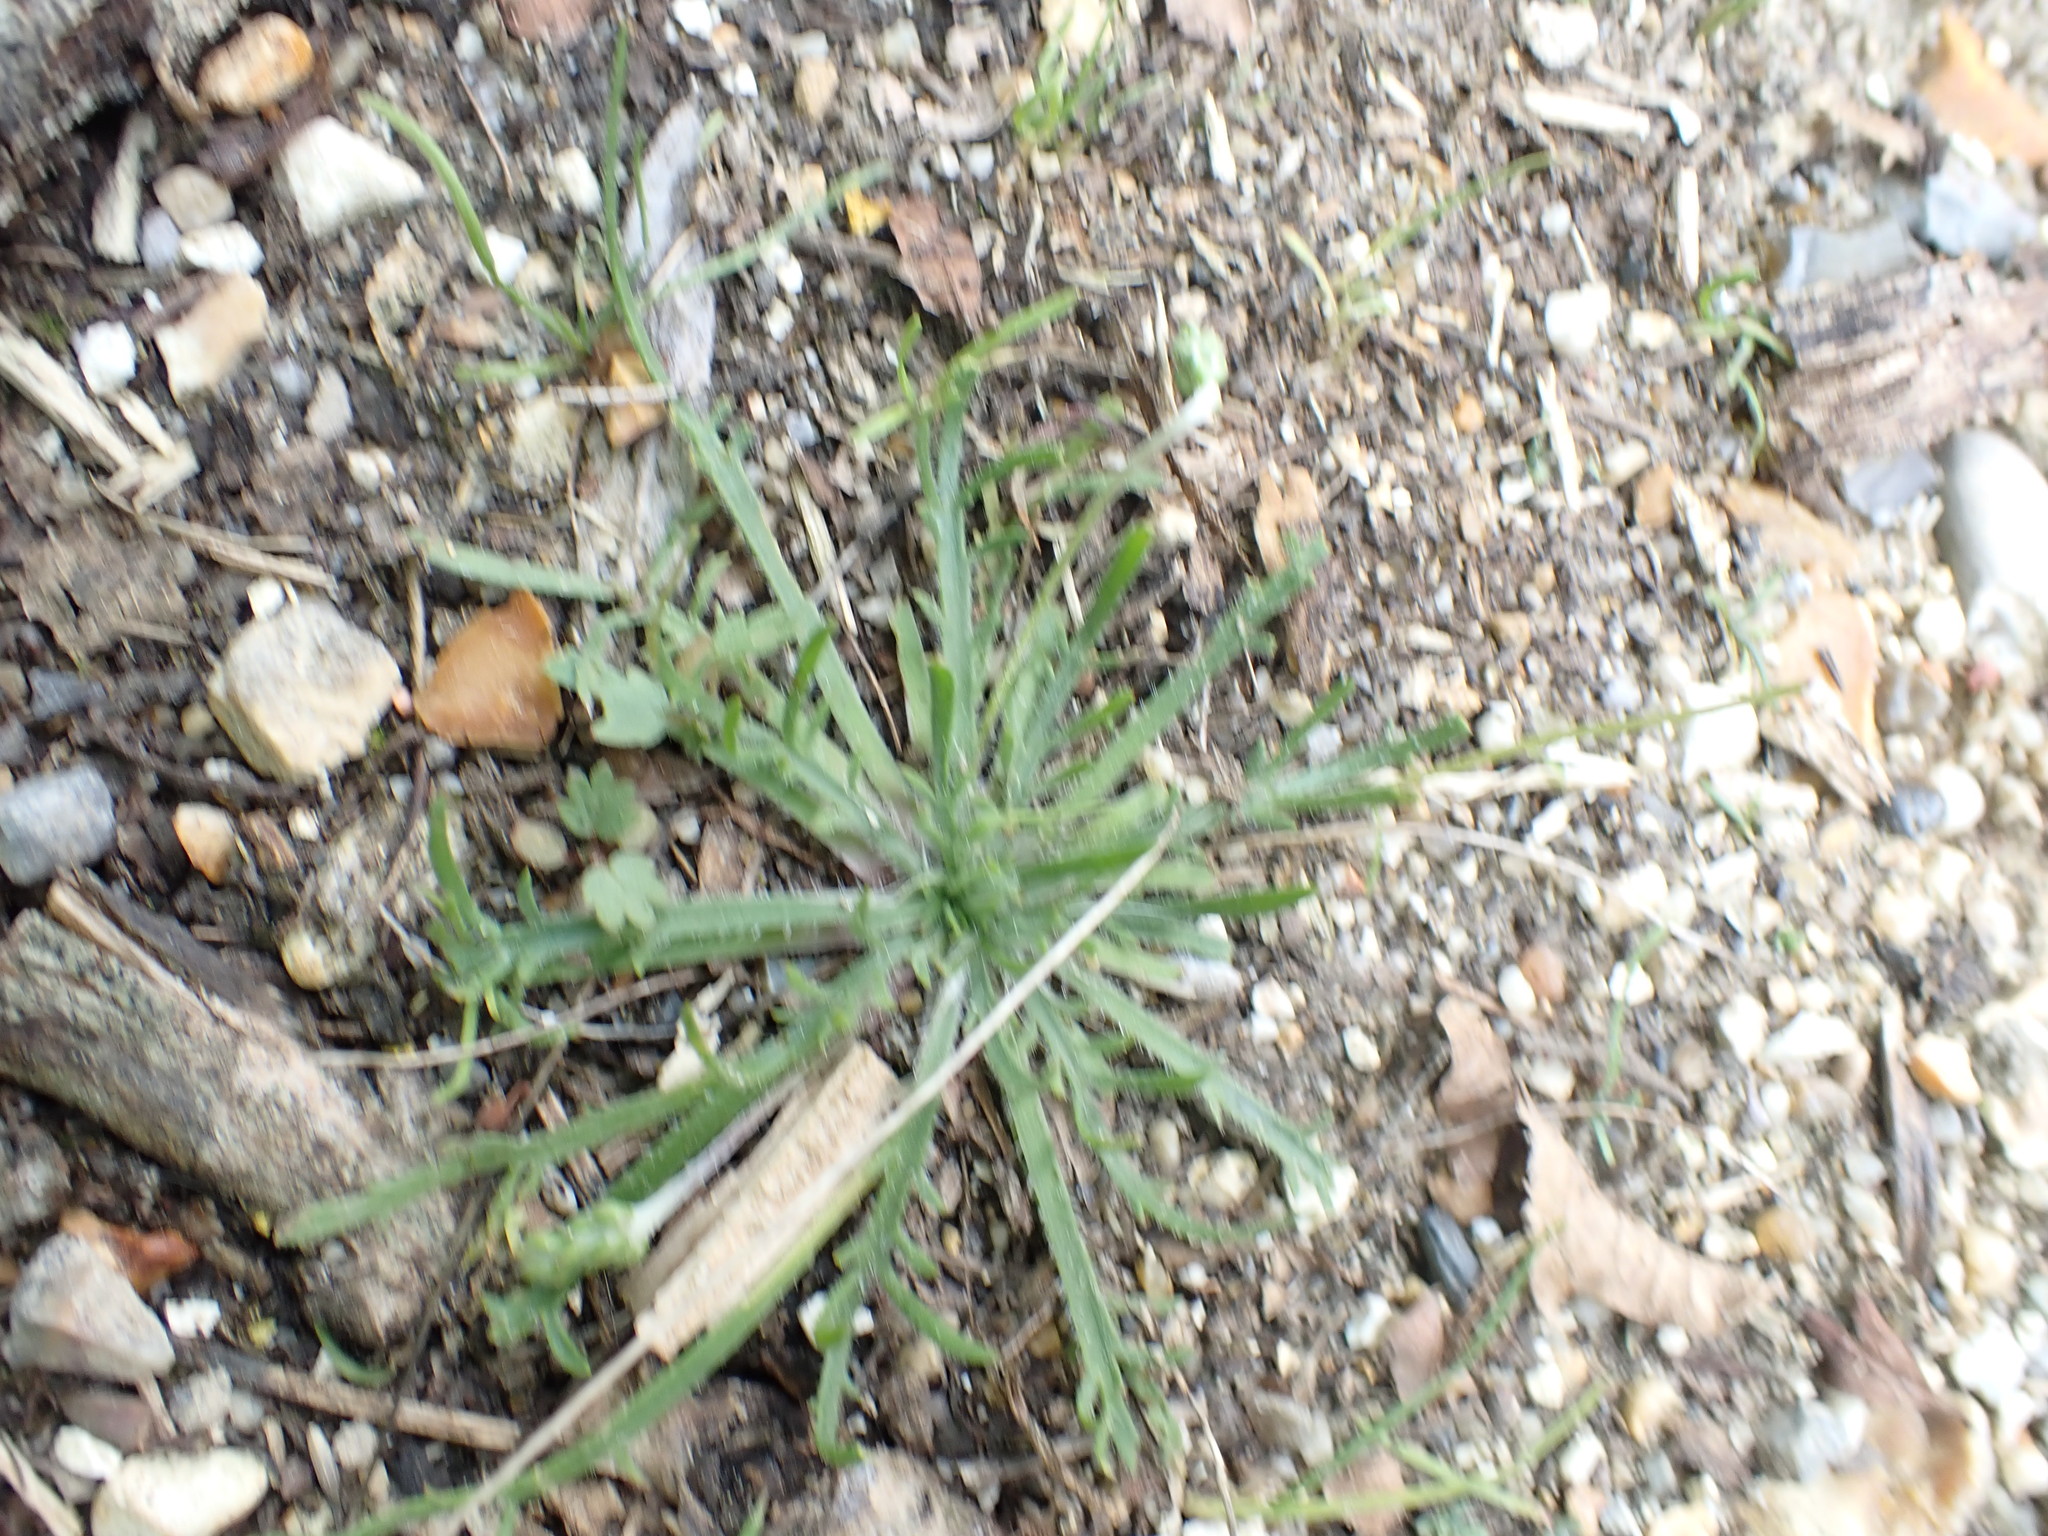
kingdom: Plantae
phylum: Tracheophyta
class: Magnoliopsida
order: Lamiales
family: Plantaginaceae
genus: Plantago
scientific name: Plantago coronopus
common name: Buck's-horn plantain
